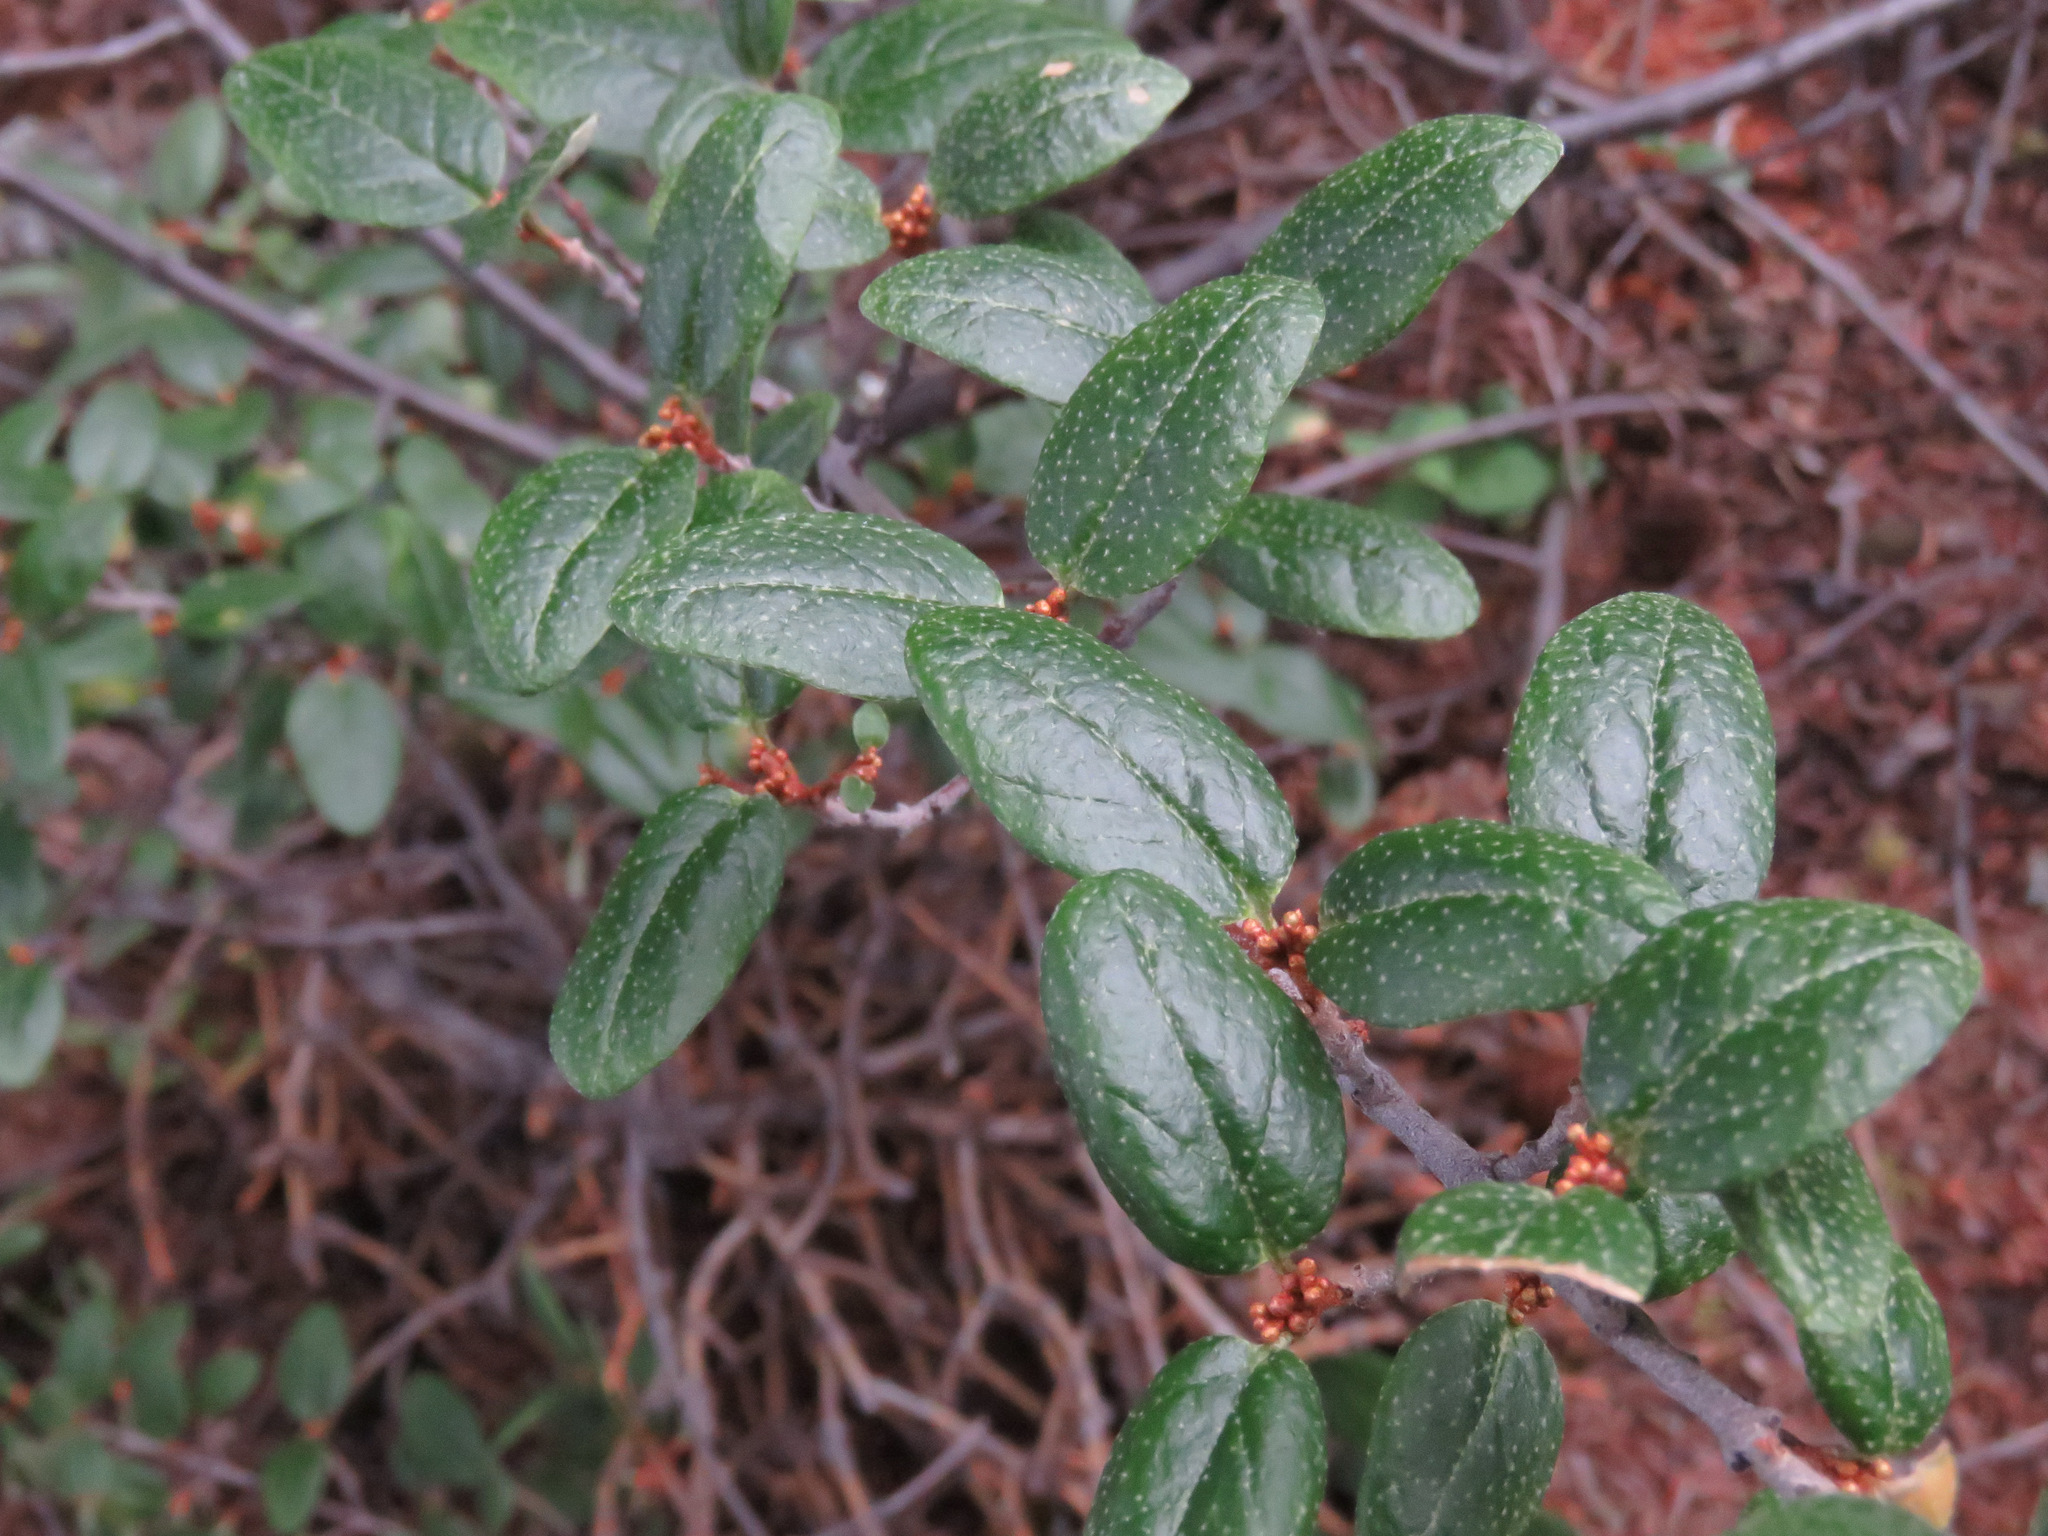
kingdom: Plantae
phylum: Tracheophyta
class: Magnoliopsida
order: Rosales
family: Elaeagnaceae
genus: Shepherdia
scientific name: Shepherdia canadensis
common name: Soapberry
